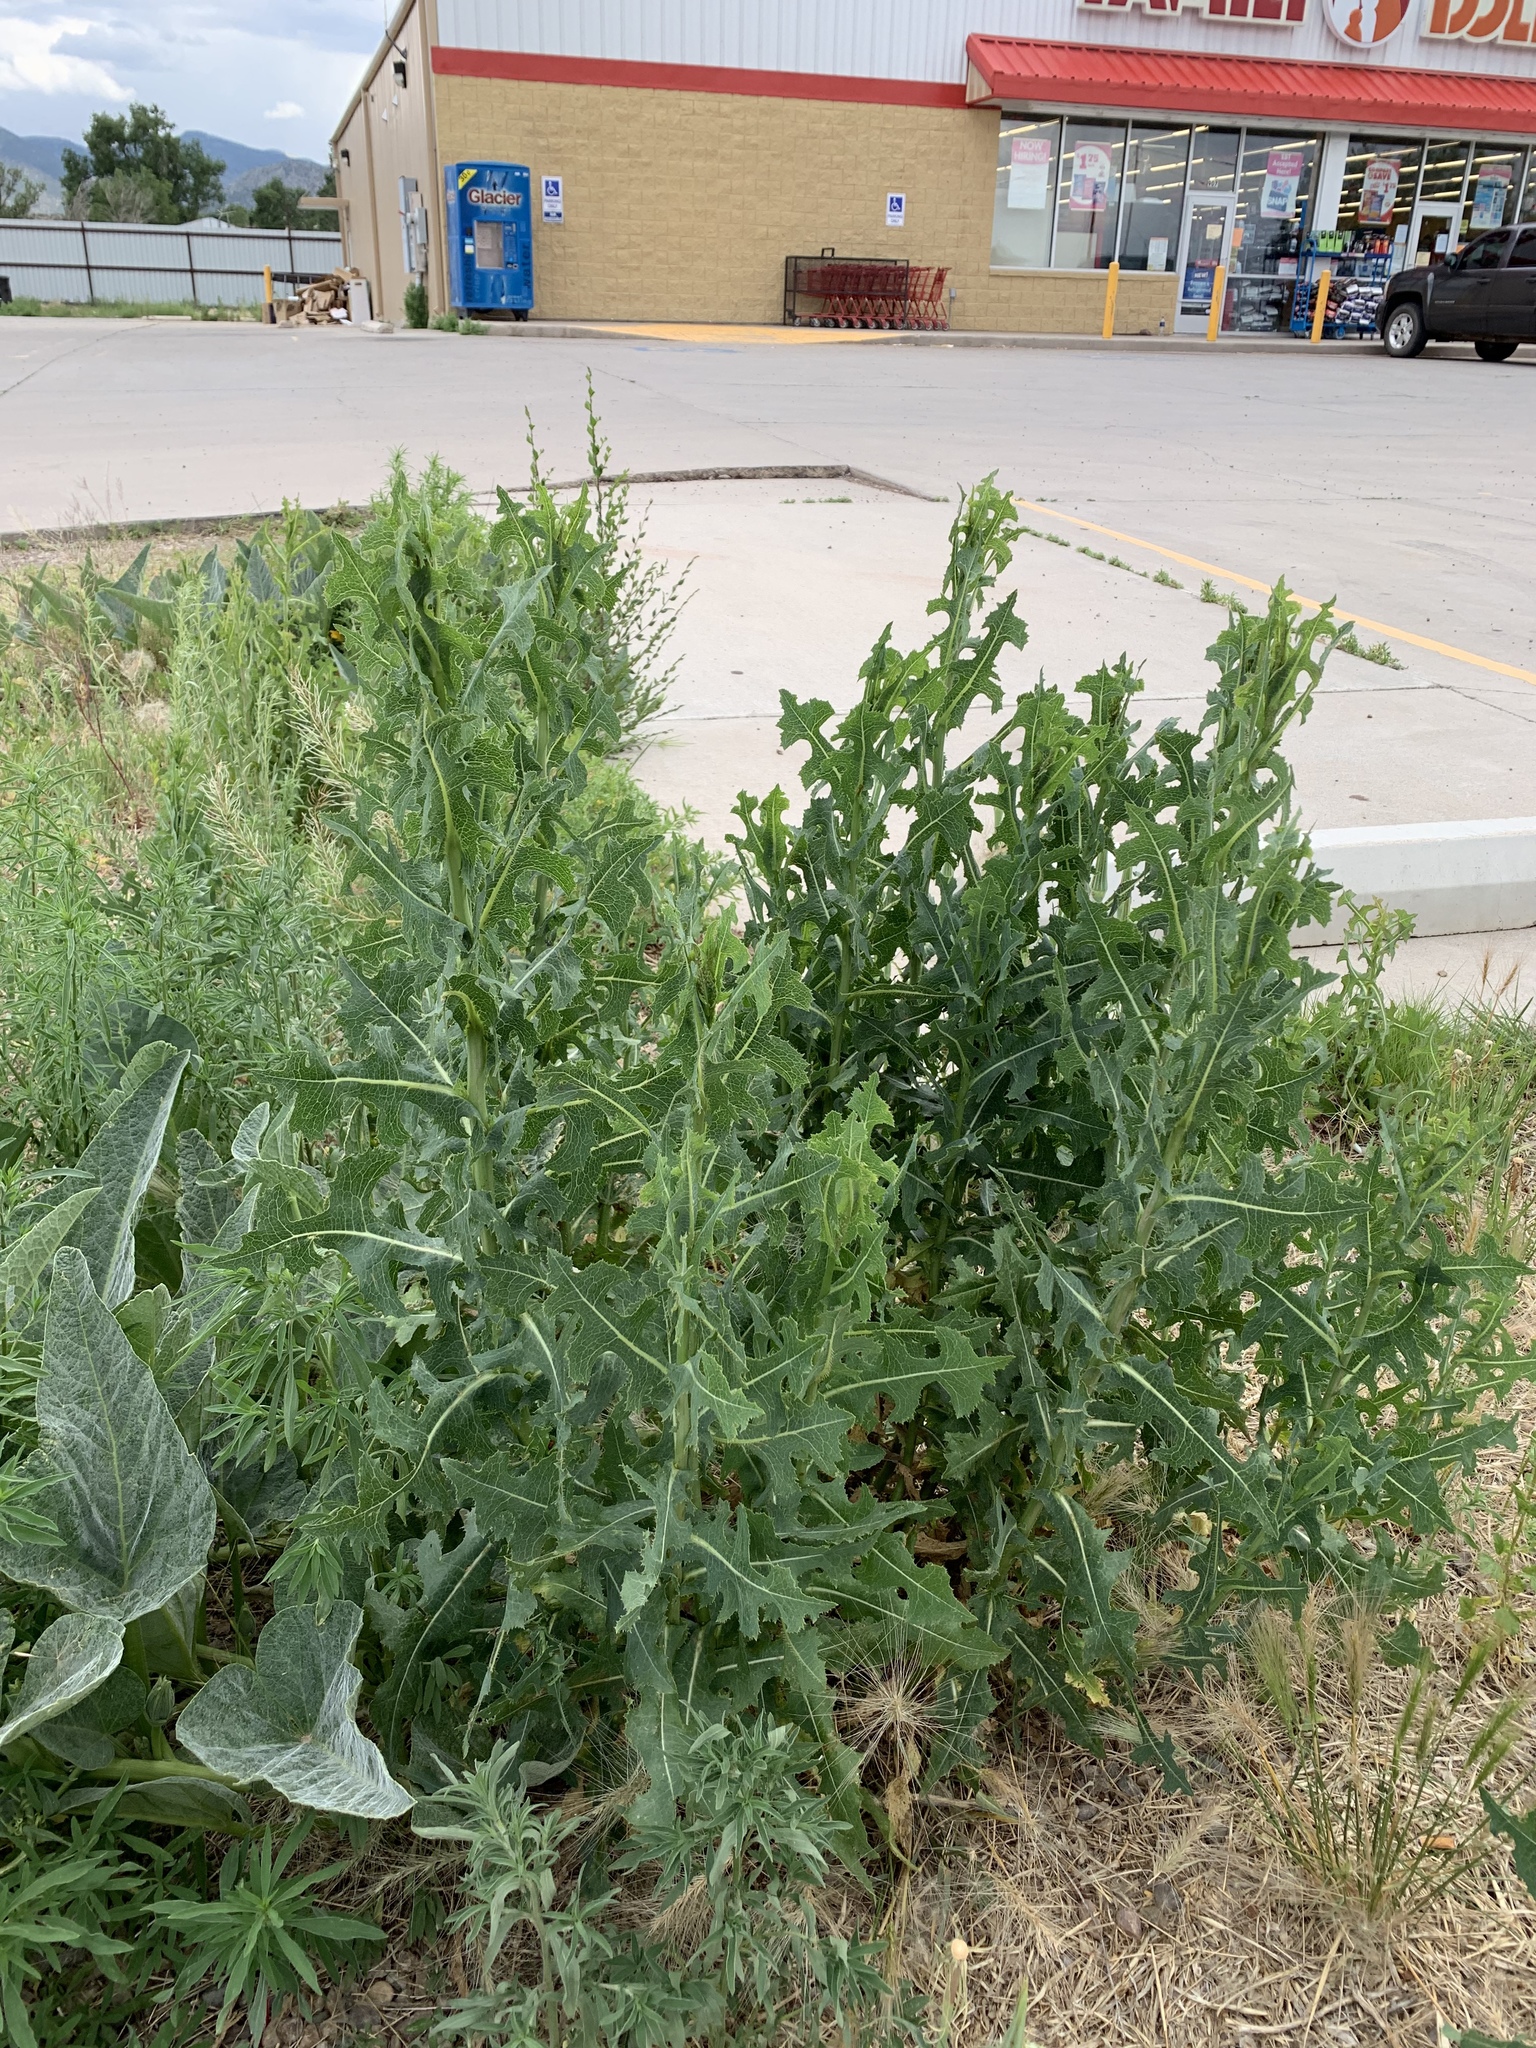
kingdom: Plantae
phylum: Tracheophyta
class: Magnoliopsida
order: Asterales
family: Asteraceae
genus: Lactuca
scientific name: Lactuca serriola
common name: Prickly lettuce
